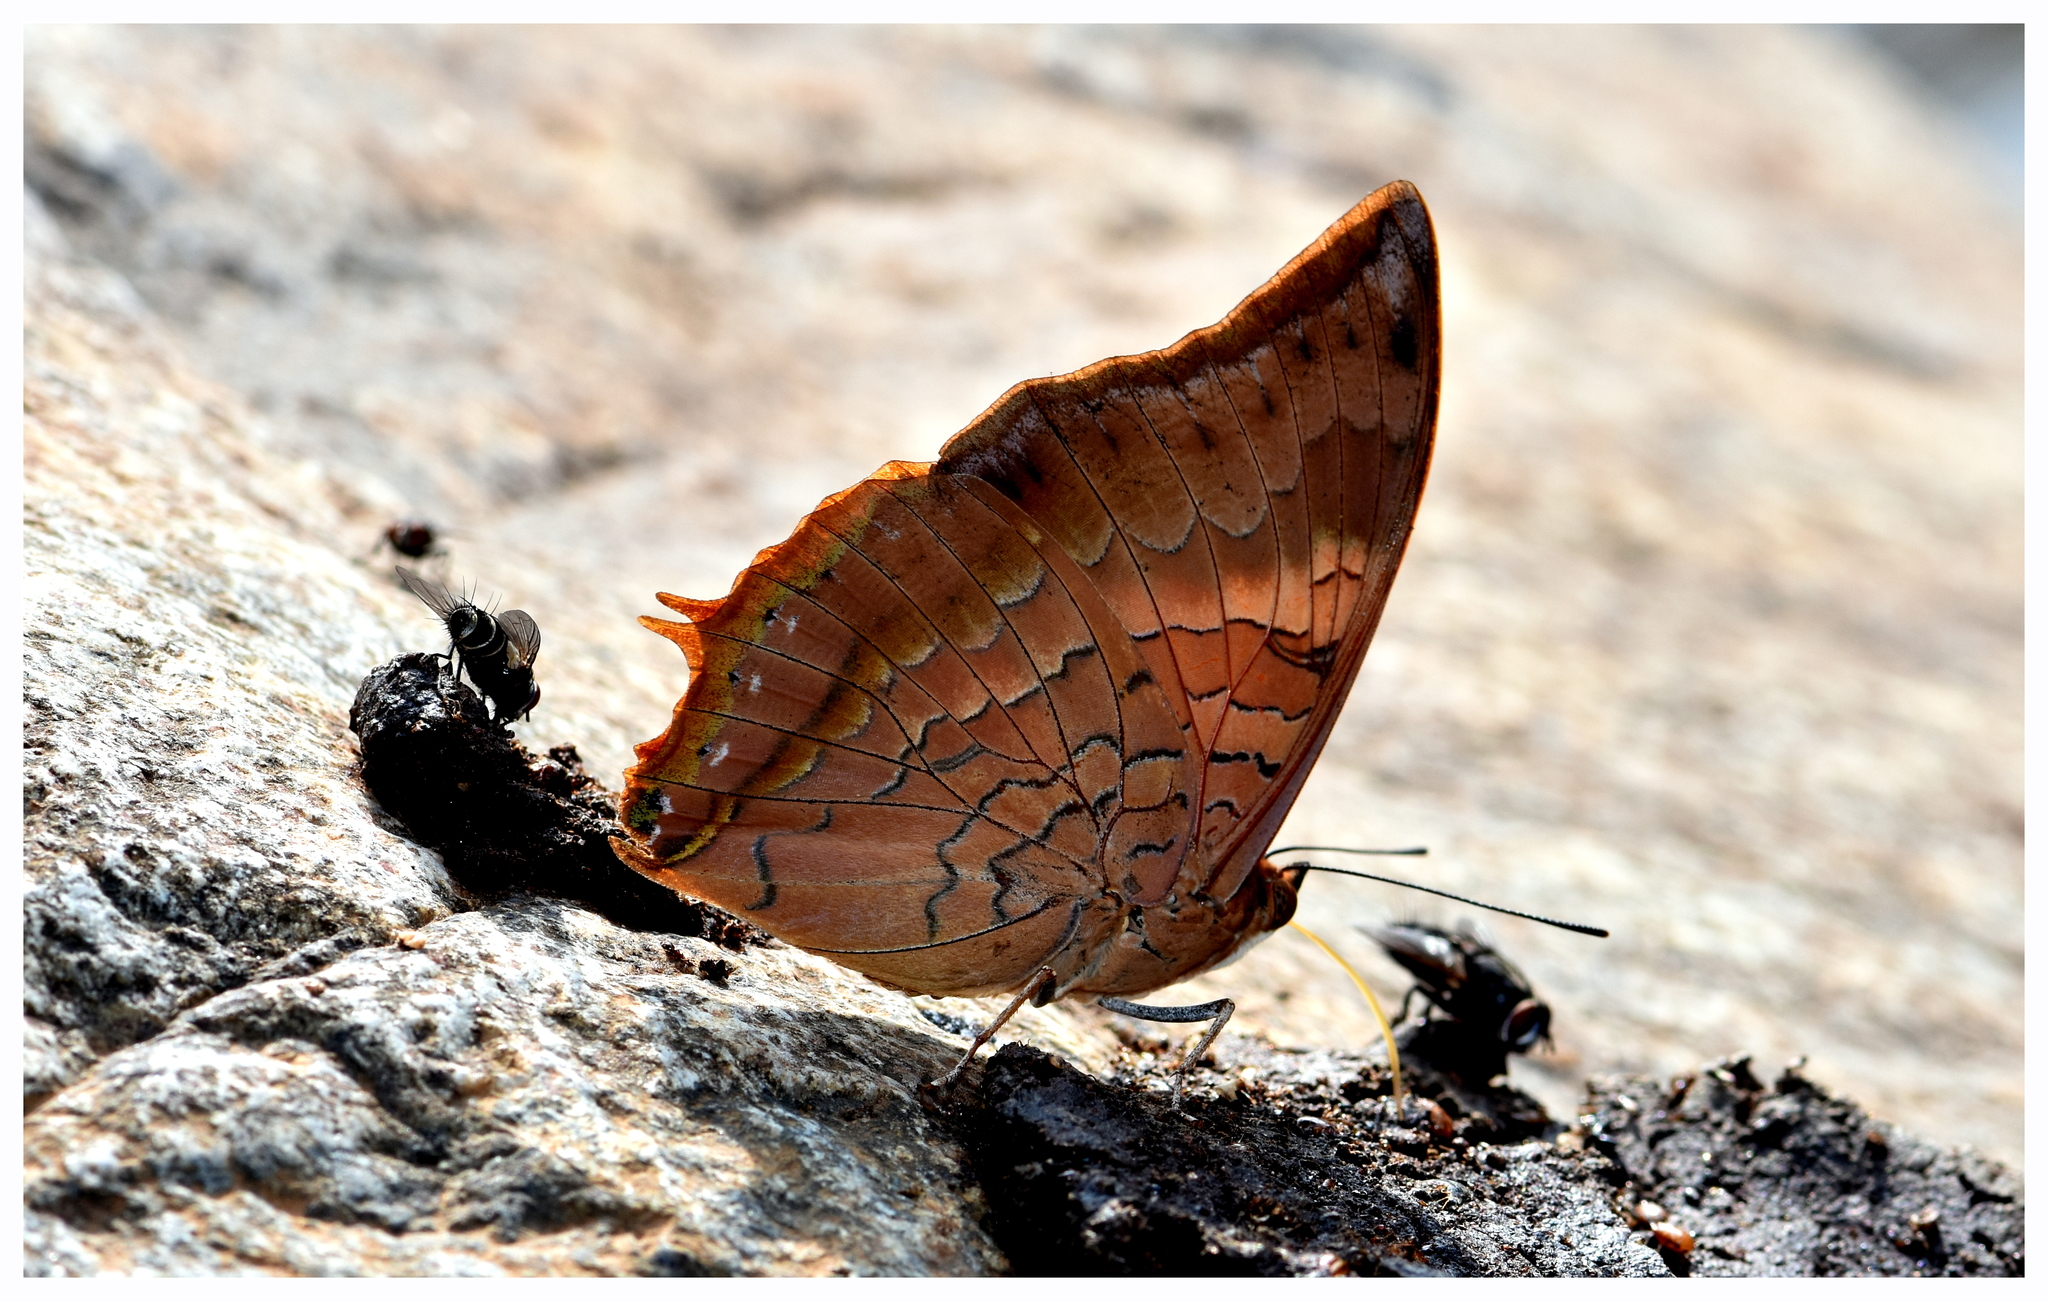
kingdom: Animalia
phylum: Arthropoda
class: Insecta
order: Lepidoptera
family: Nymphalidae
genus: Charaxes
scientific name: Charaxes psaphon
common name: Plain tawny rajah
